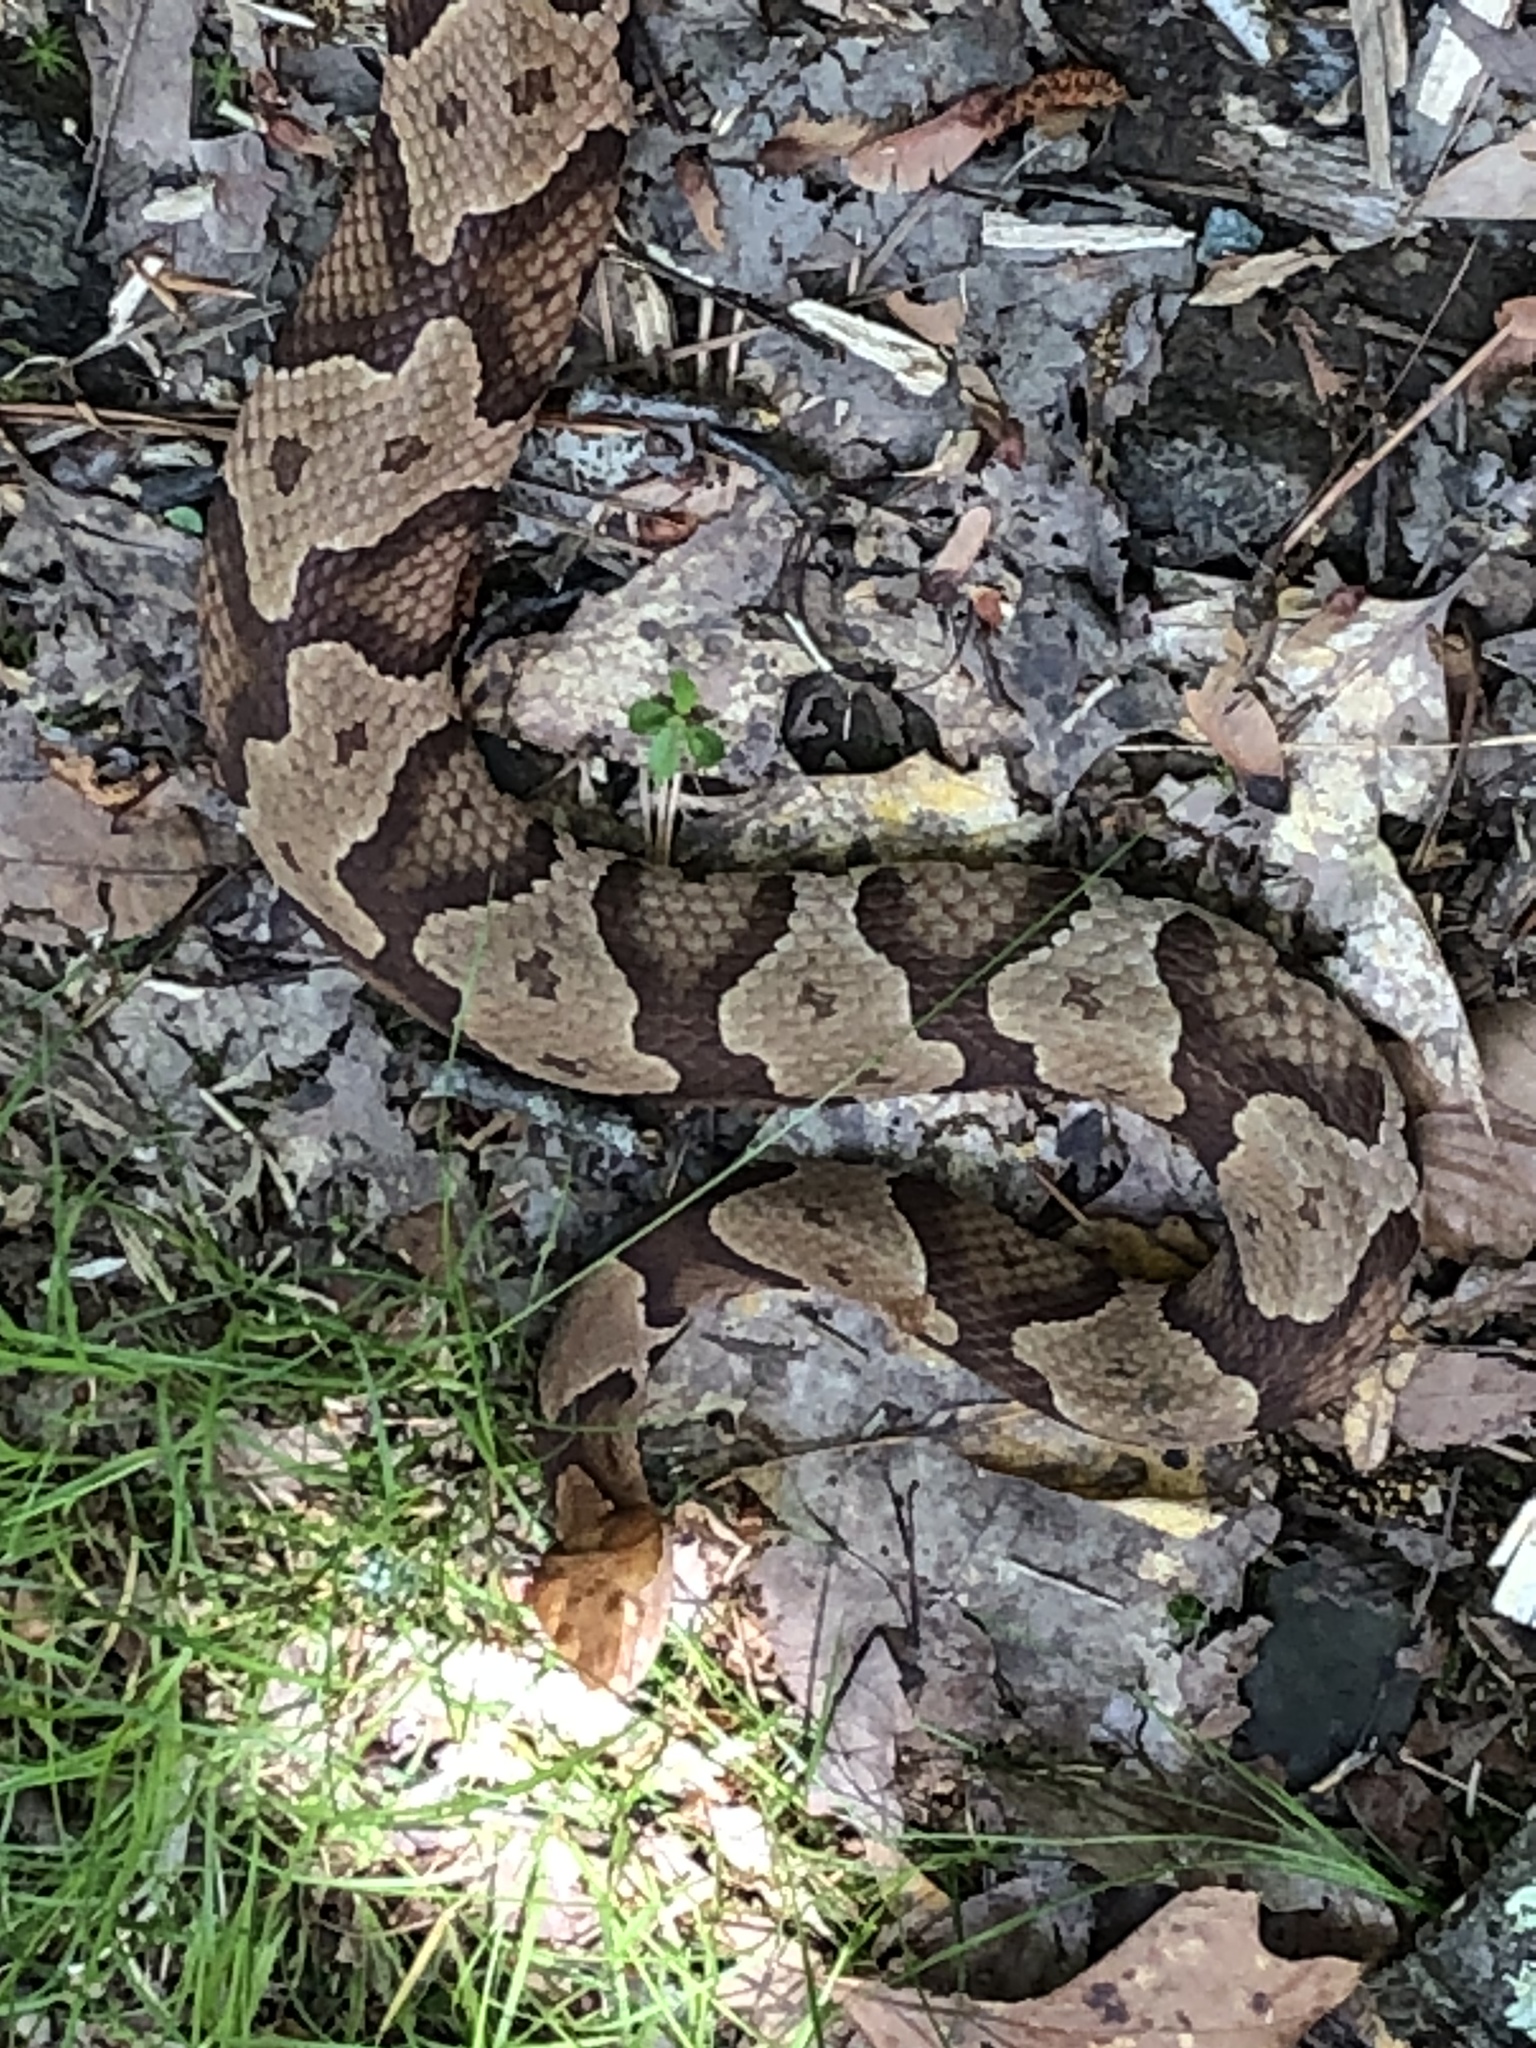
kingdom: Animalia
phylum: Chordata
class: Squamata
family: Viperidae
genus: Agkistrodon
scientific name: Agkistrodon contortrix
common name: Northern copperhead
